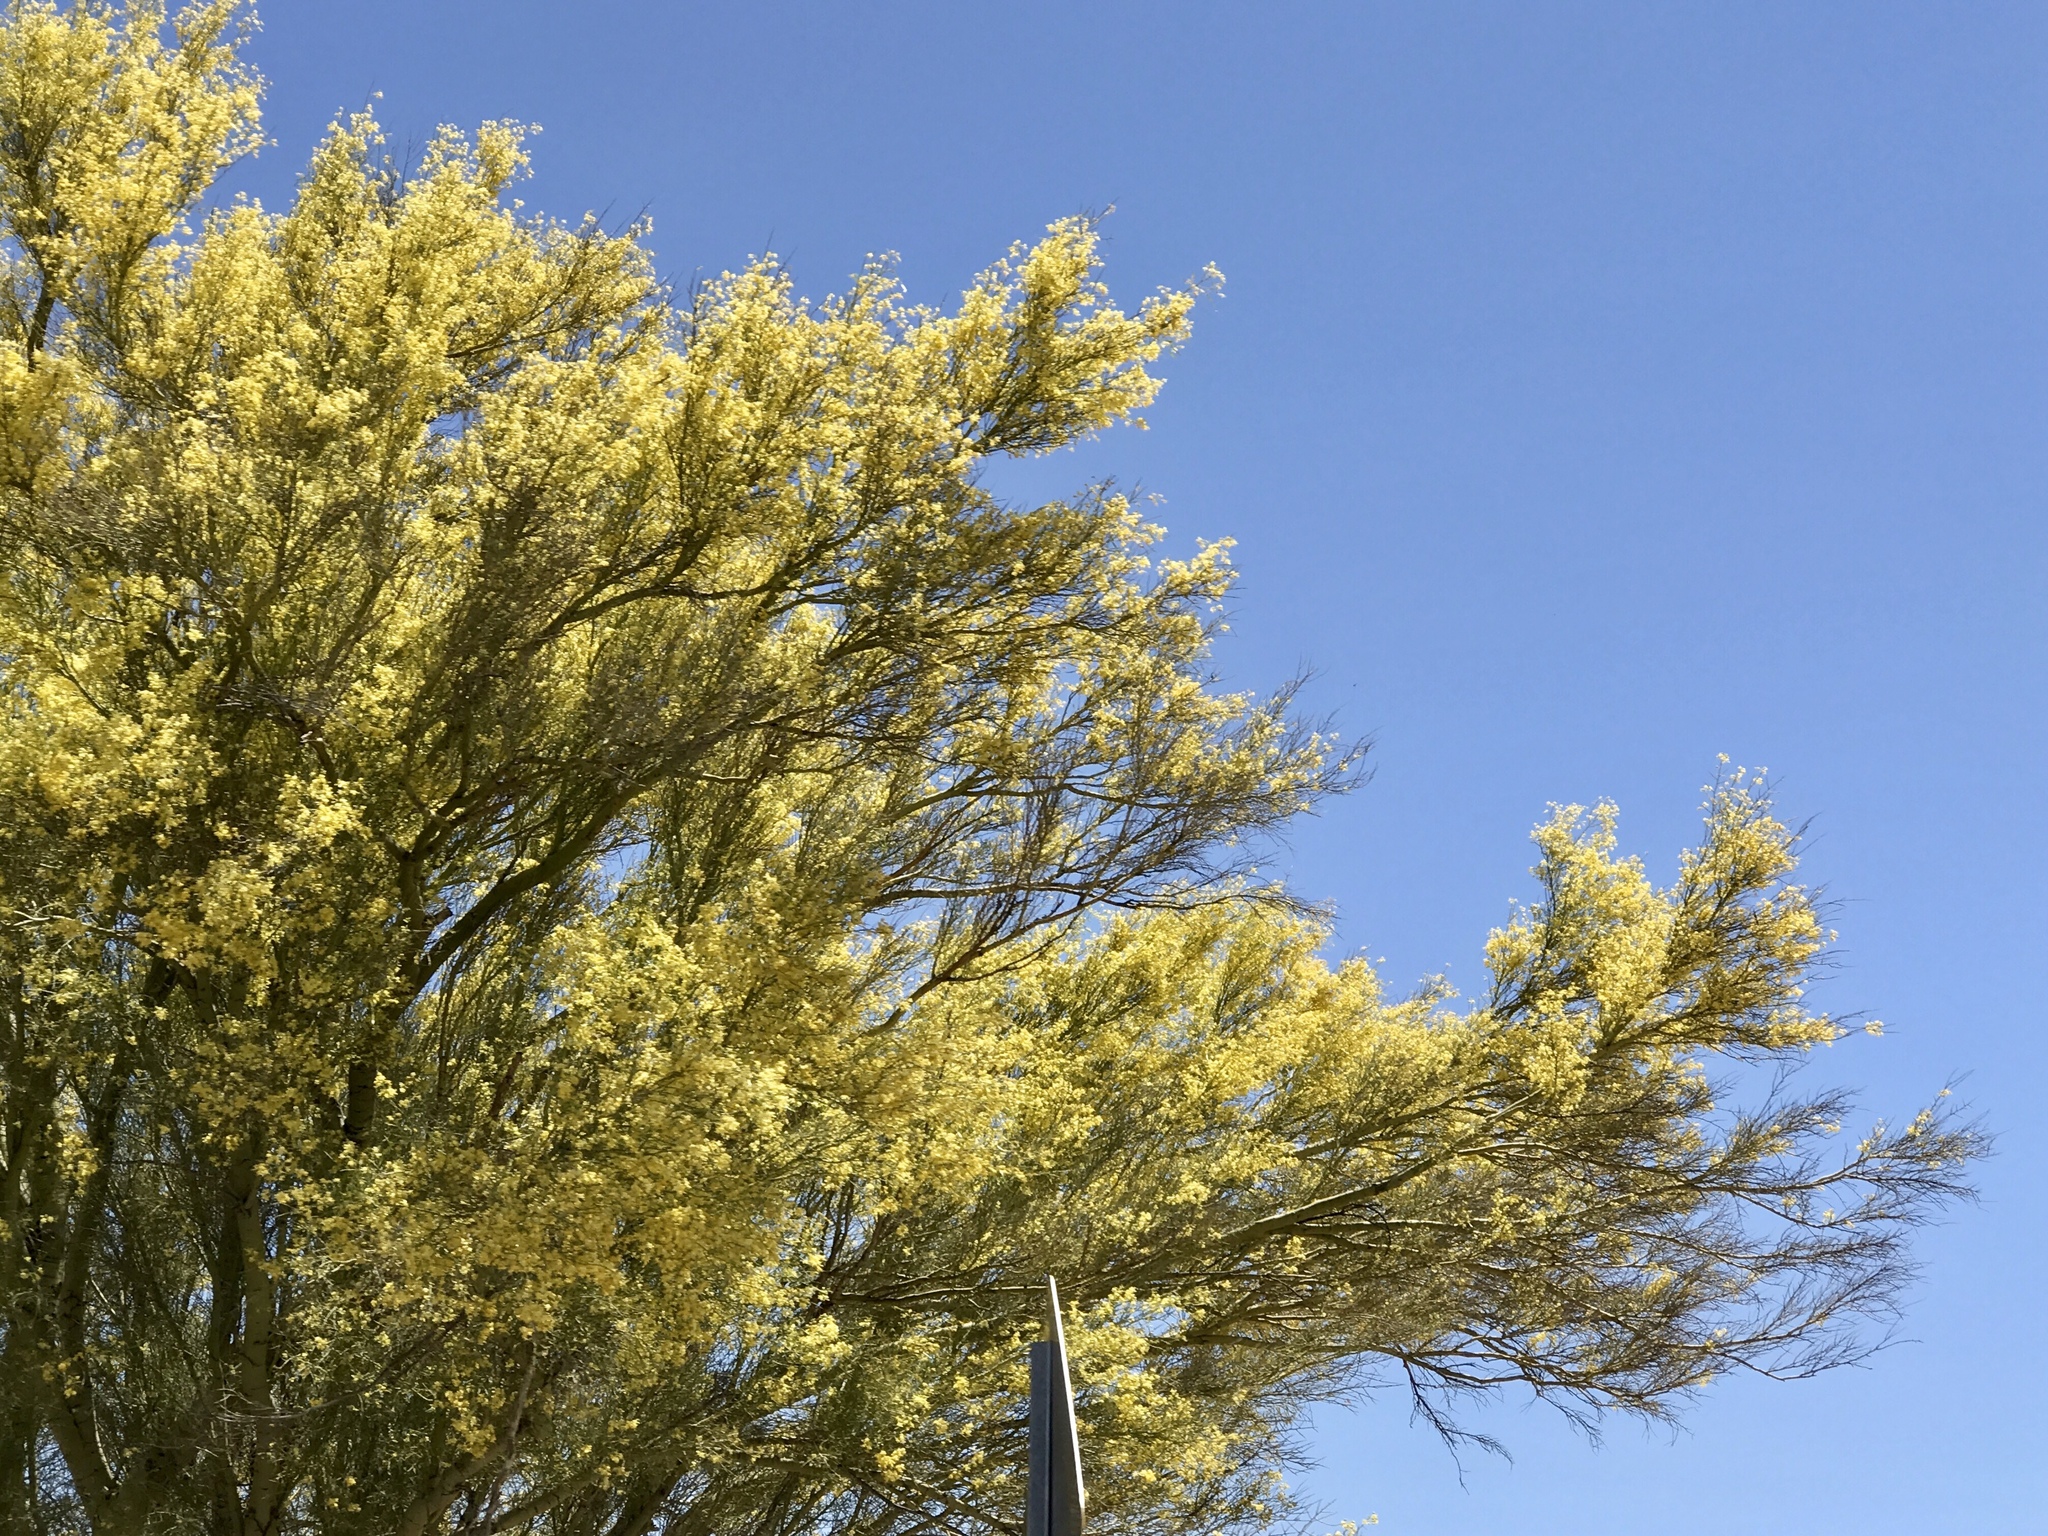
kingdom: Plantae
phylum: Tracheophyta
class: Magnoliopsida
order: Fabales
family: Fabaceae
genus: Parkinsonia
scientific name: Parkinsonia microphylla
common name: Yellow paloverde
